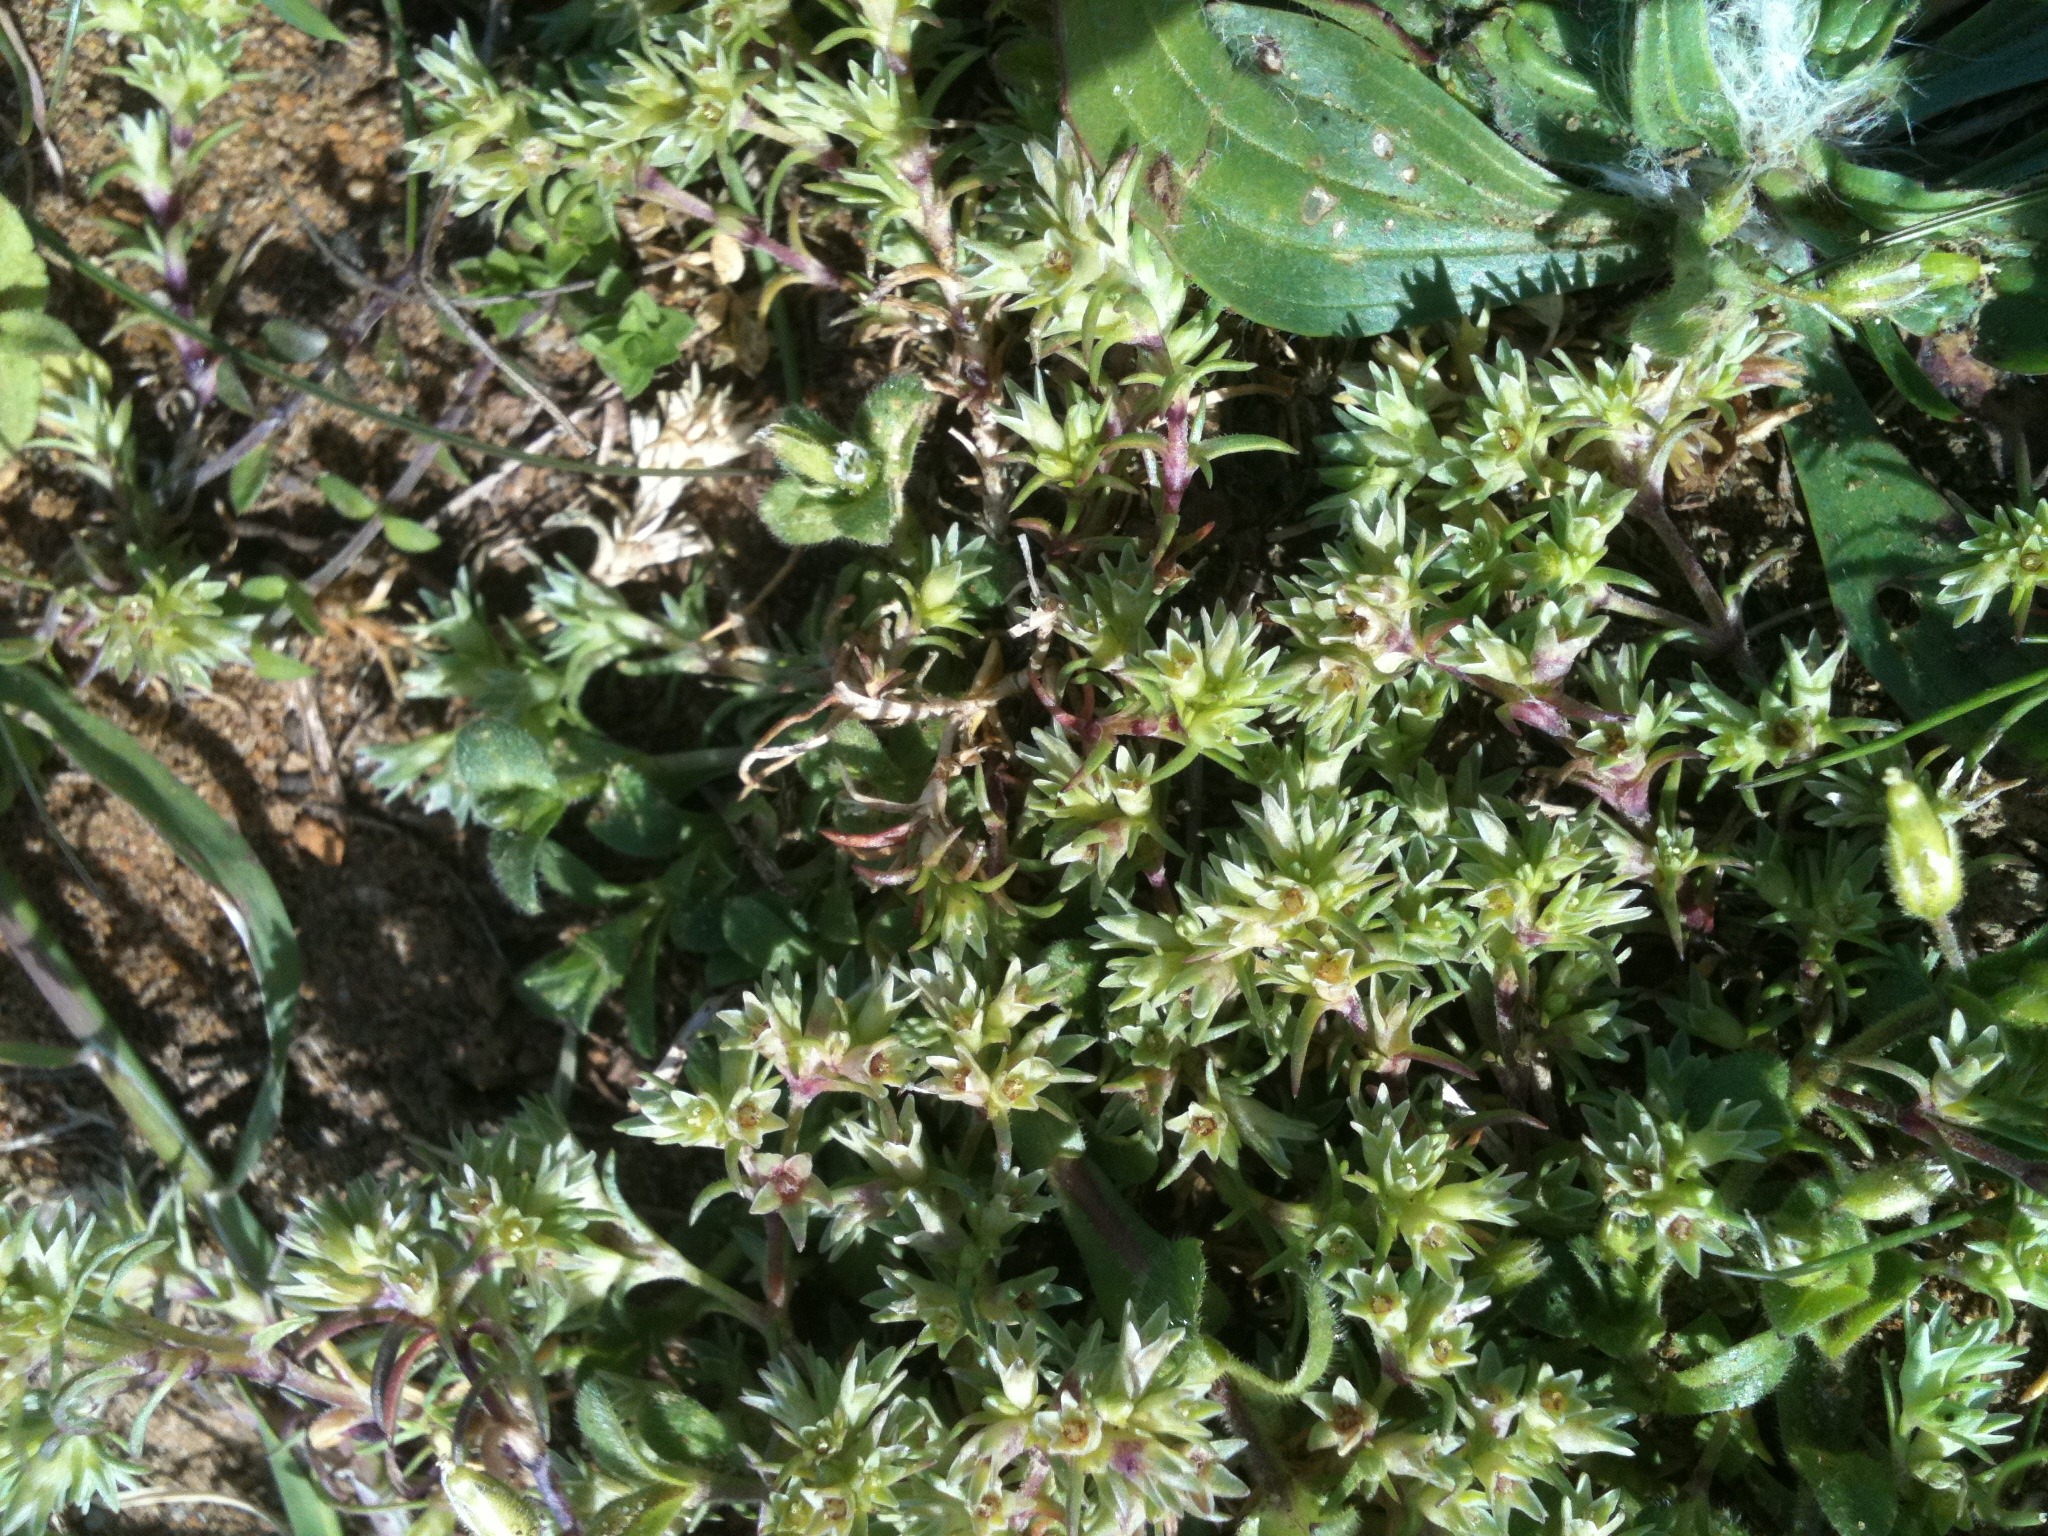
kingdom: Plantae
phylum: Tracheophyta
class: Magnoliopsida
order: Caryophyllales
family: Caryophyllaceae
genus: Scleranthus
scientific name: Scleranthus annuus
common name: Annual knawel
